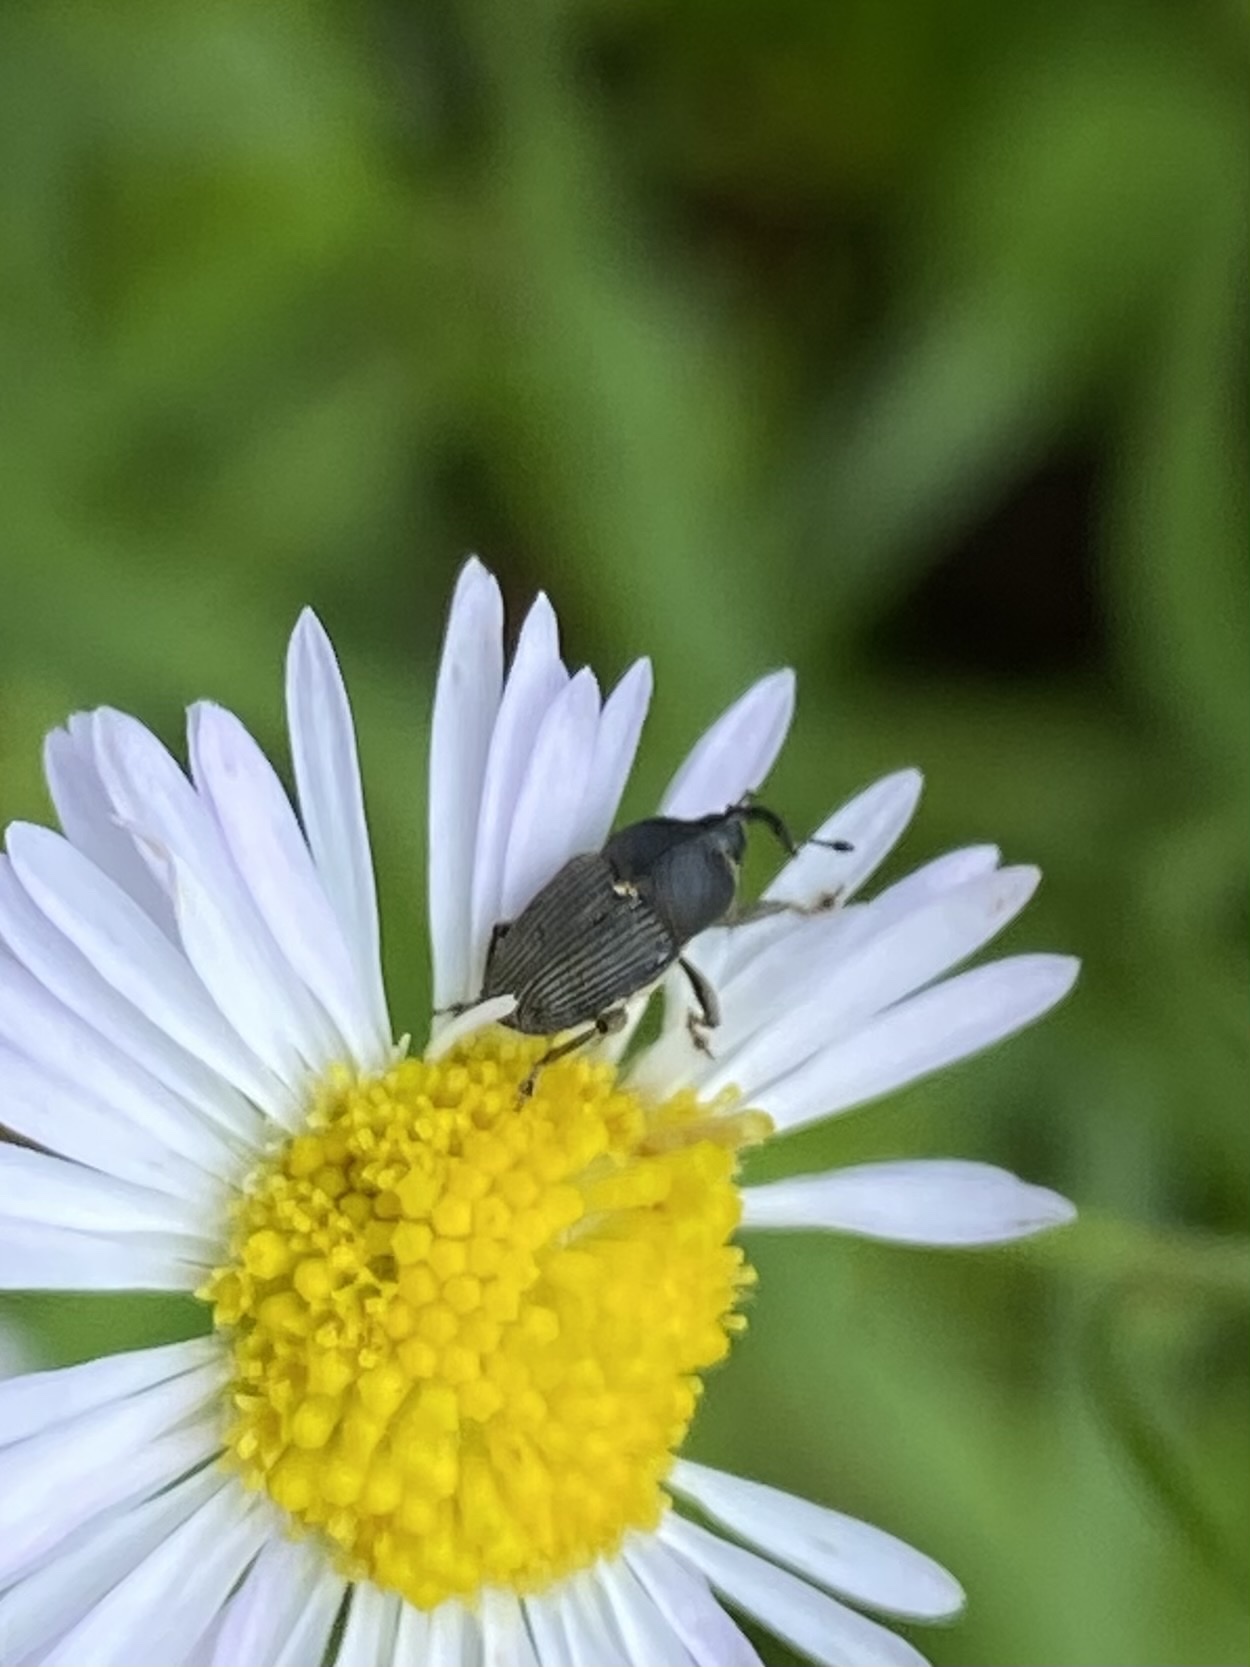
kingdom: Animalia
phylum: Arthropoda
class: Insecta
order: Coleoptera
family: Curculionidae
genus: Odontocorynus
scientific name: Odontocorynus salebrosus
